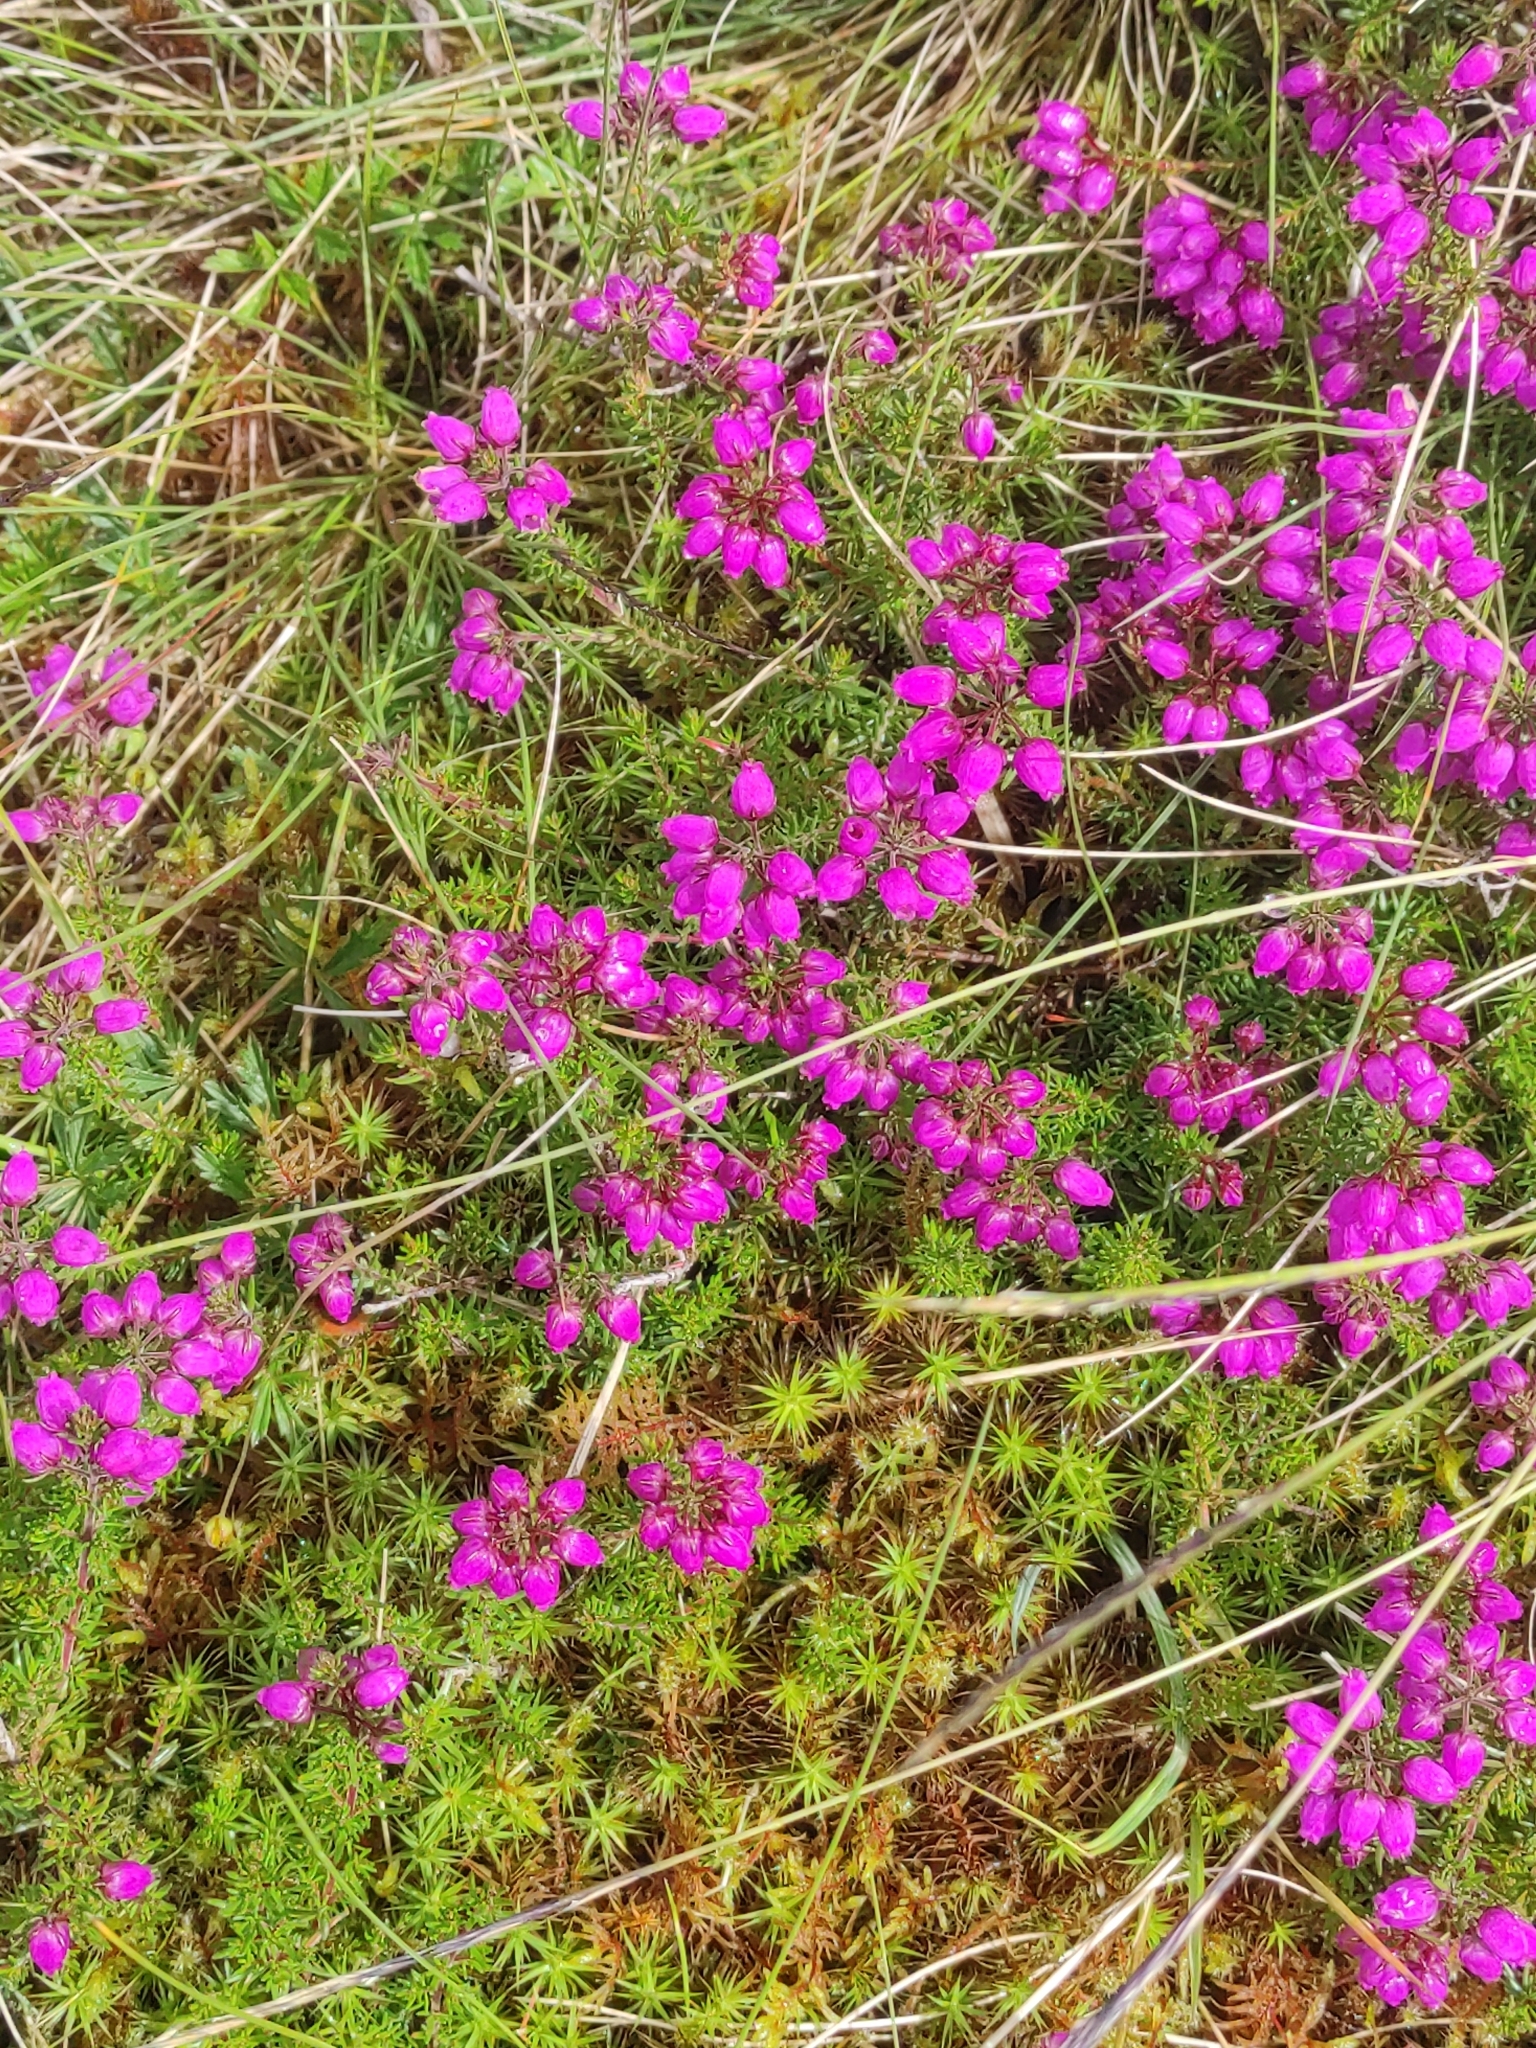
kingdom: Plantae
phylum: Tracheophyta
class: Magnoliopsida
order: Ericales
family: Ericaceae
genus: Erica
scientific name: Erica cinerea
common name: Bell heather
